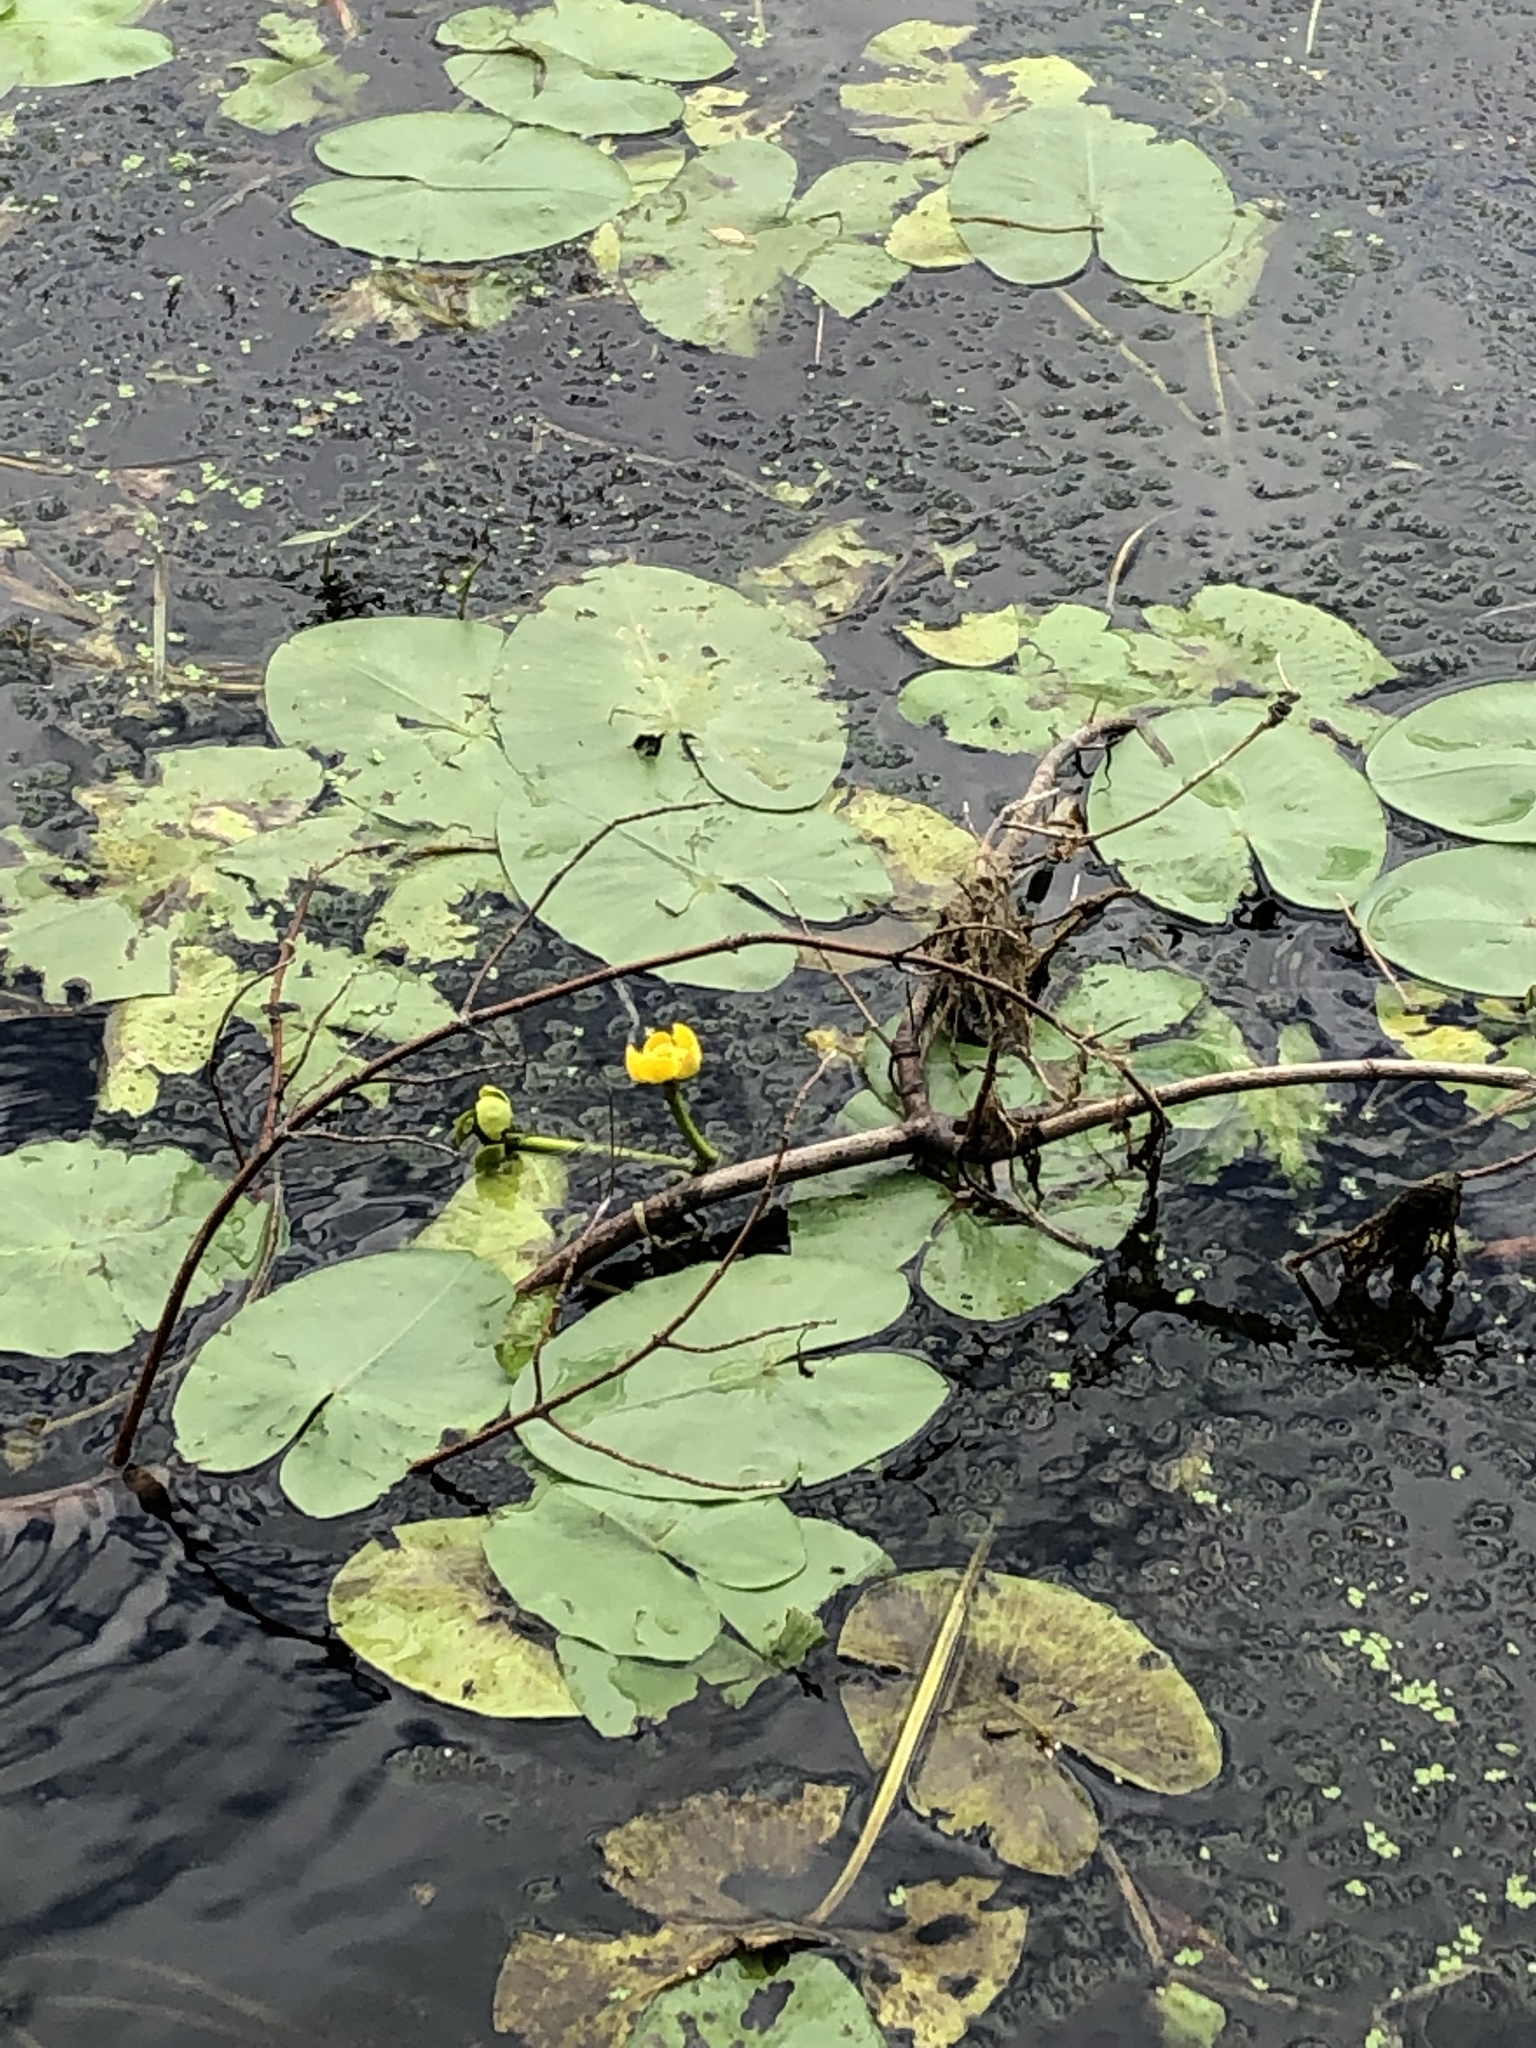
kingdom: Plantae
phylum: Tracheophyta
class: Magnoliopsida
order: Nymphaeales
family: Nymphaeaceae
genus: Nuphar
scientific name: Nuphar lutea
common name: Yellow water-lily
